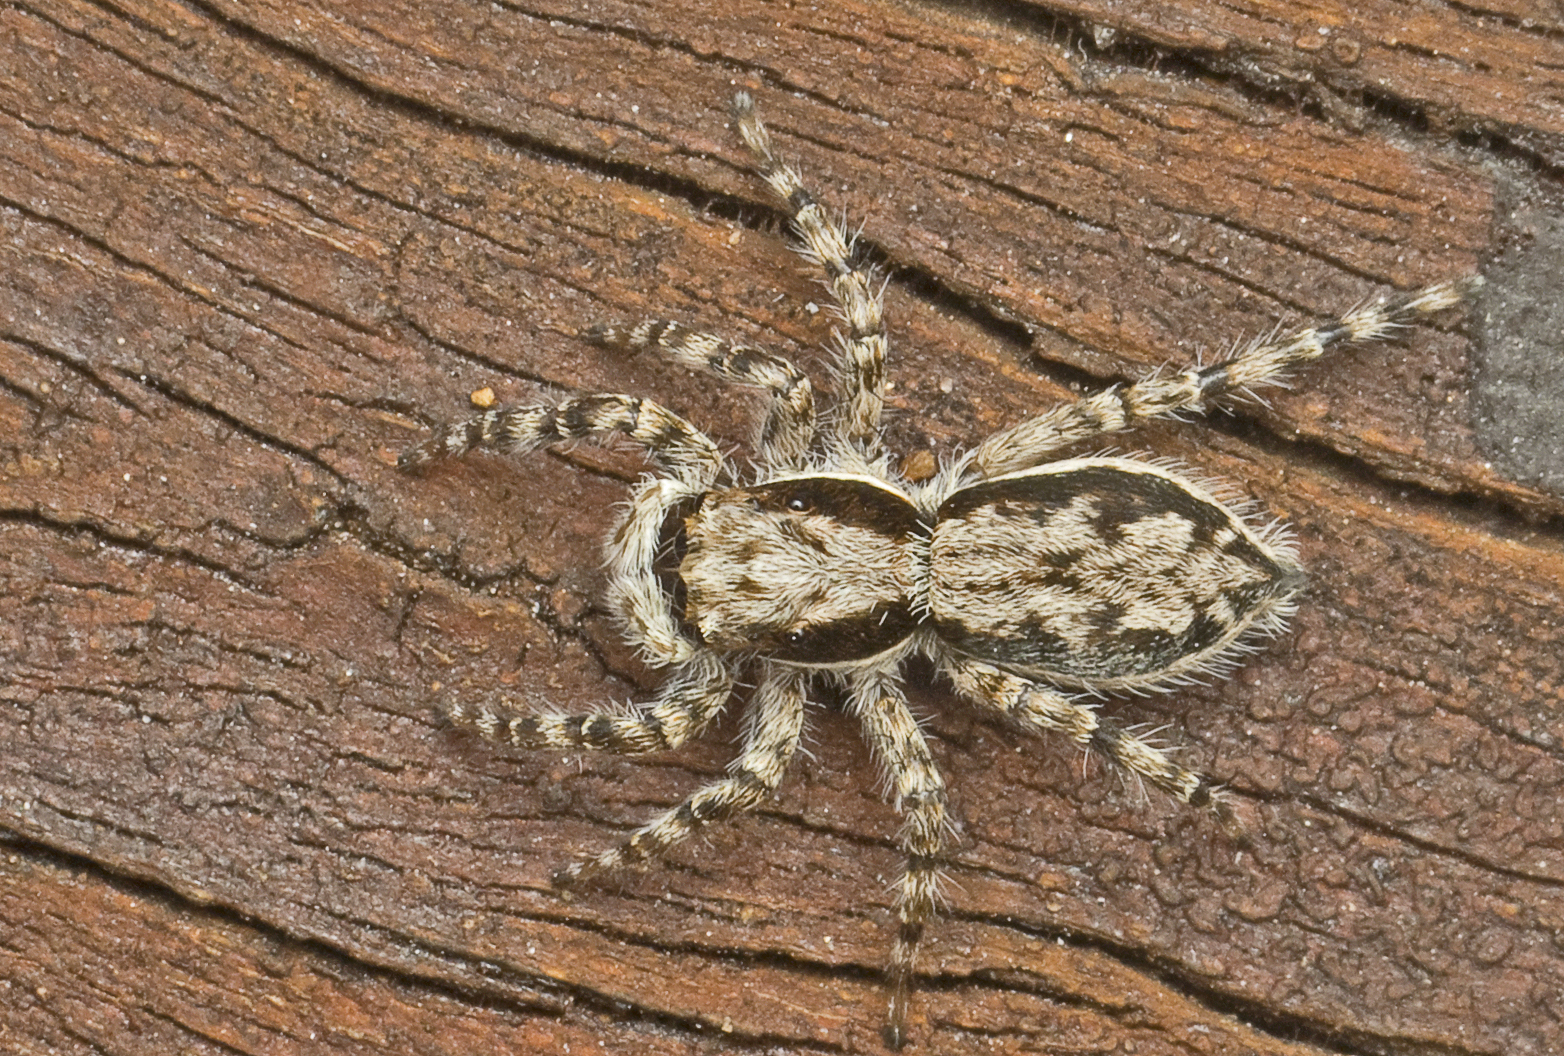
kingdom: Animalia
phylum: Arthropoda
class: Arachnida
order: Araneae
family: Salticidae
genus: Menemerus
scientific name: Menemerus bivittatus
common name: Gray wall jumper
